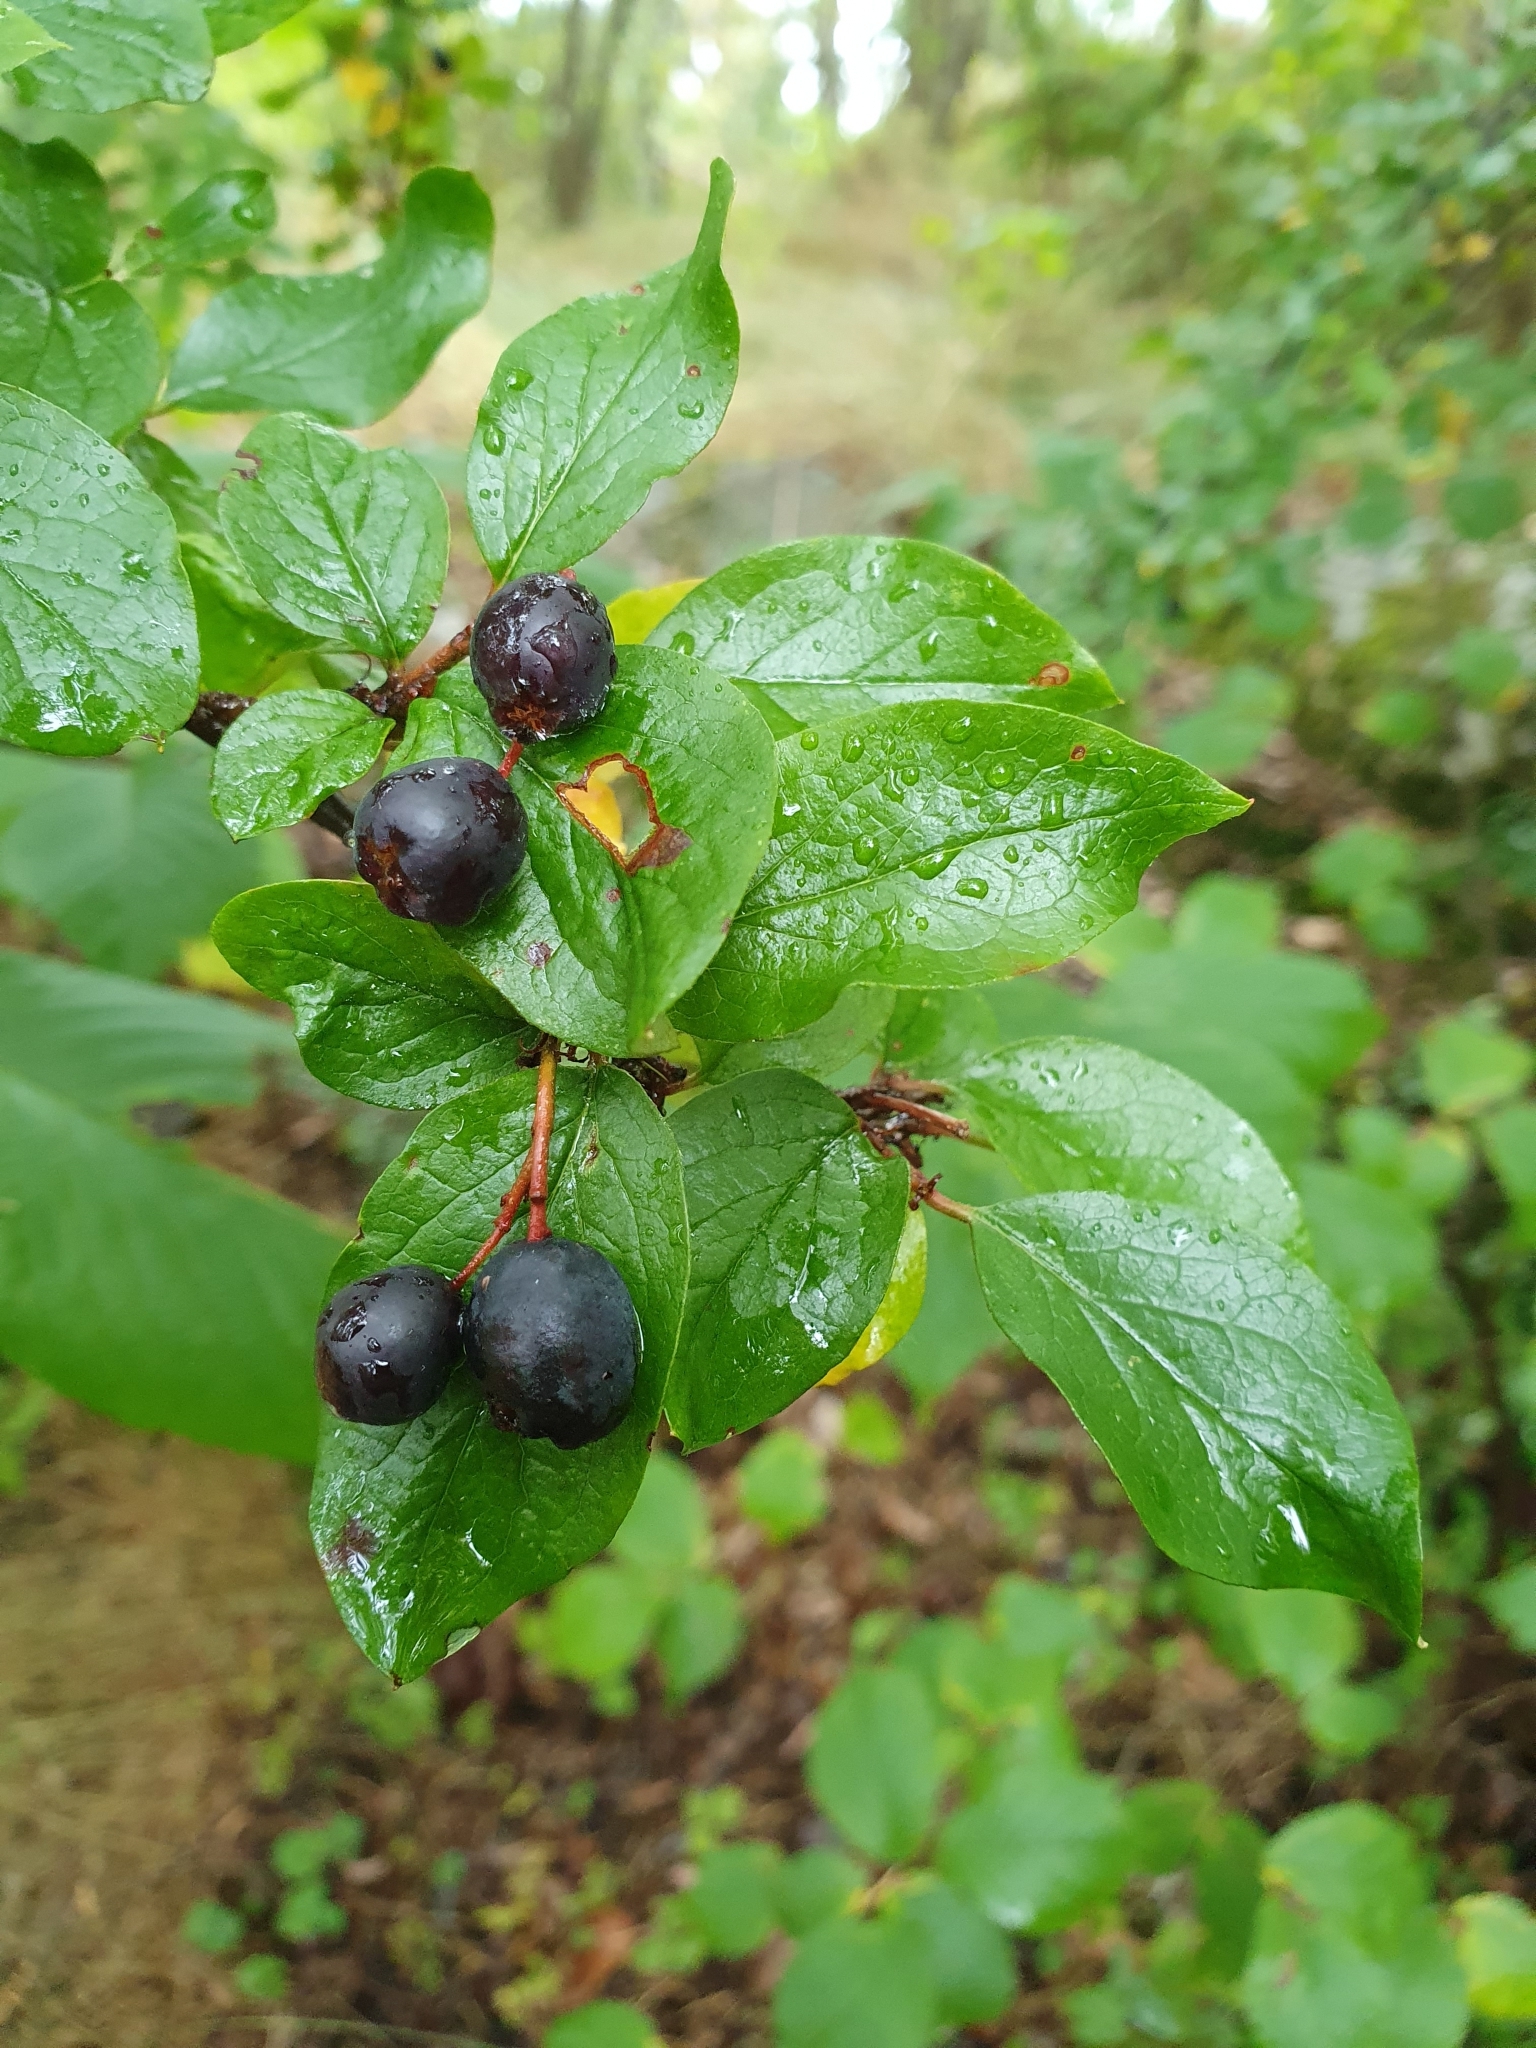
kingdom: Plantae
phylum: Tracheophyta
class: Magnoliopsida
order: Rosales
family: Rosaceae
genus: Cotoneaster
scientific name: Cotoneaster acutifolius
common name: Peking cotoneaster
